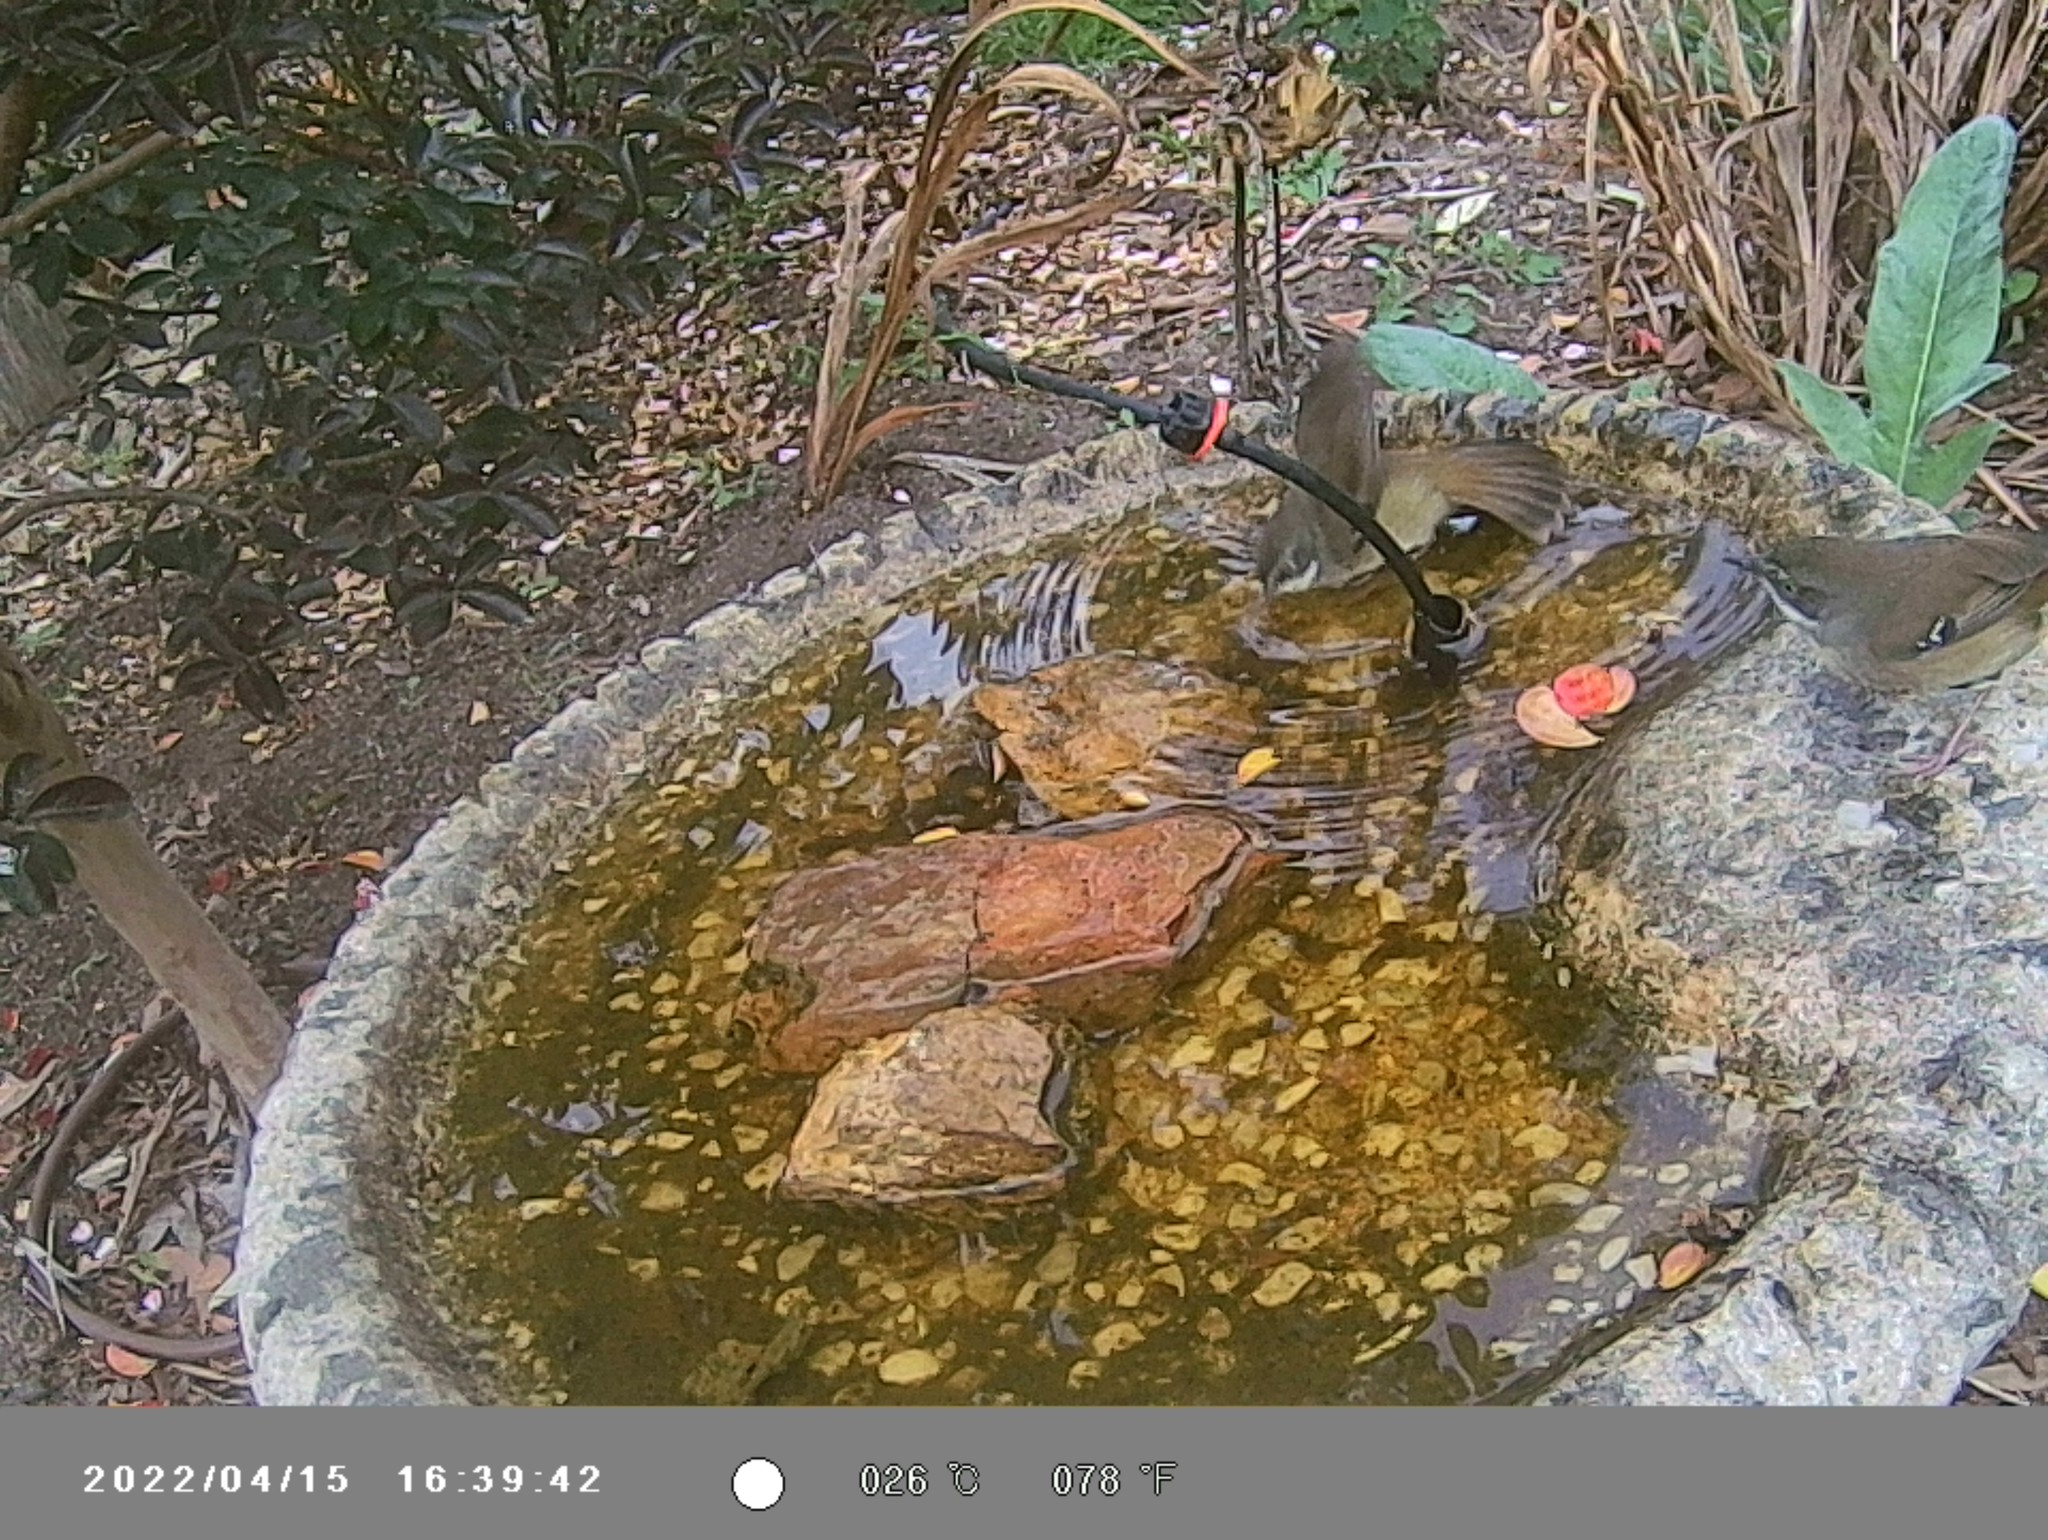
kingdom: Animalia
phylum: Chordata
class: Aves
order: Passeriformes
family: Acanthizidae
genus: Sericornis
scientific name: Sericornis frontalis
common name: White-browed scrubwren
